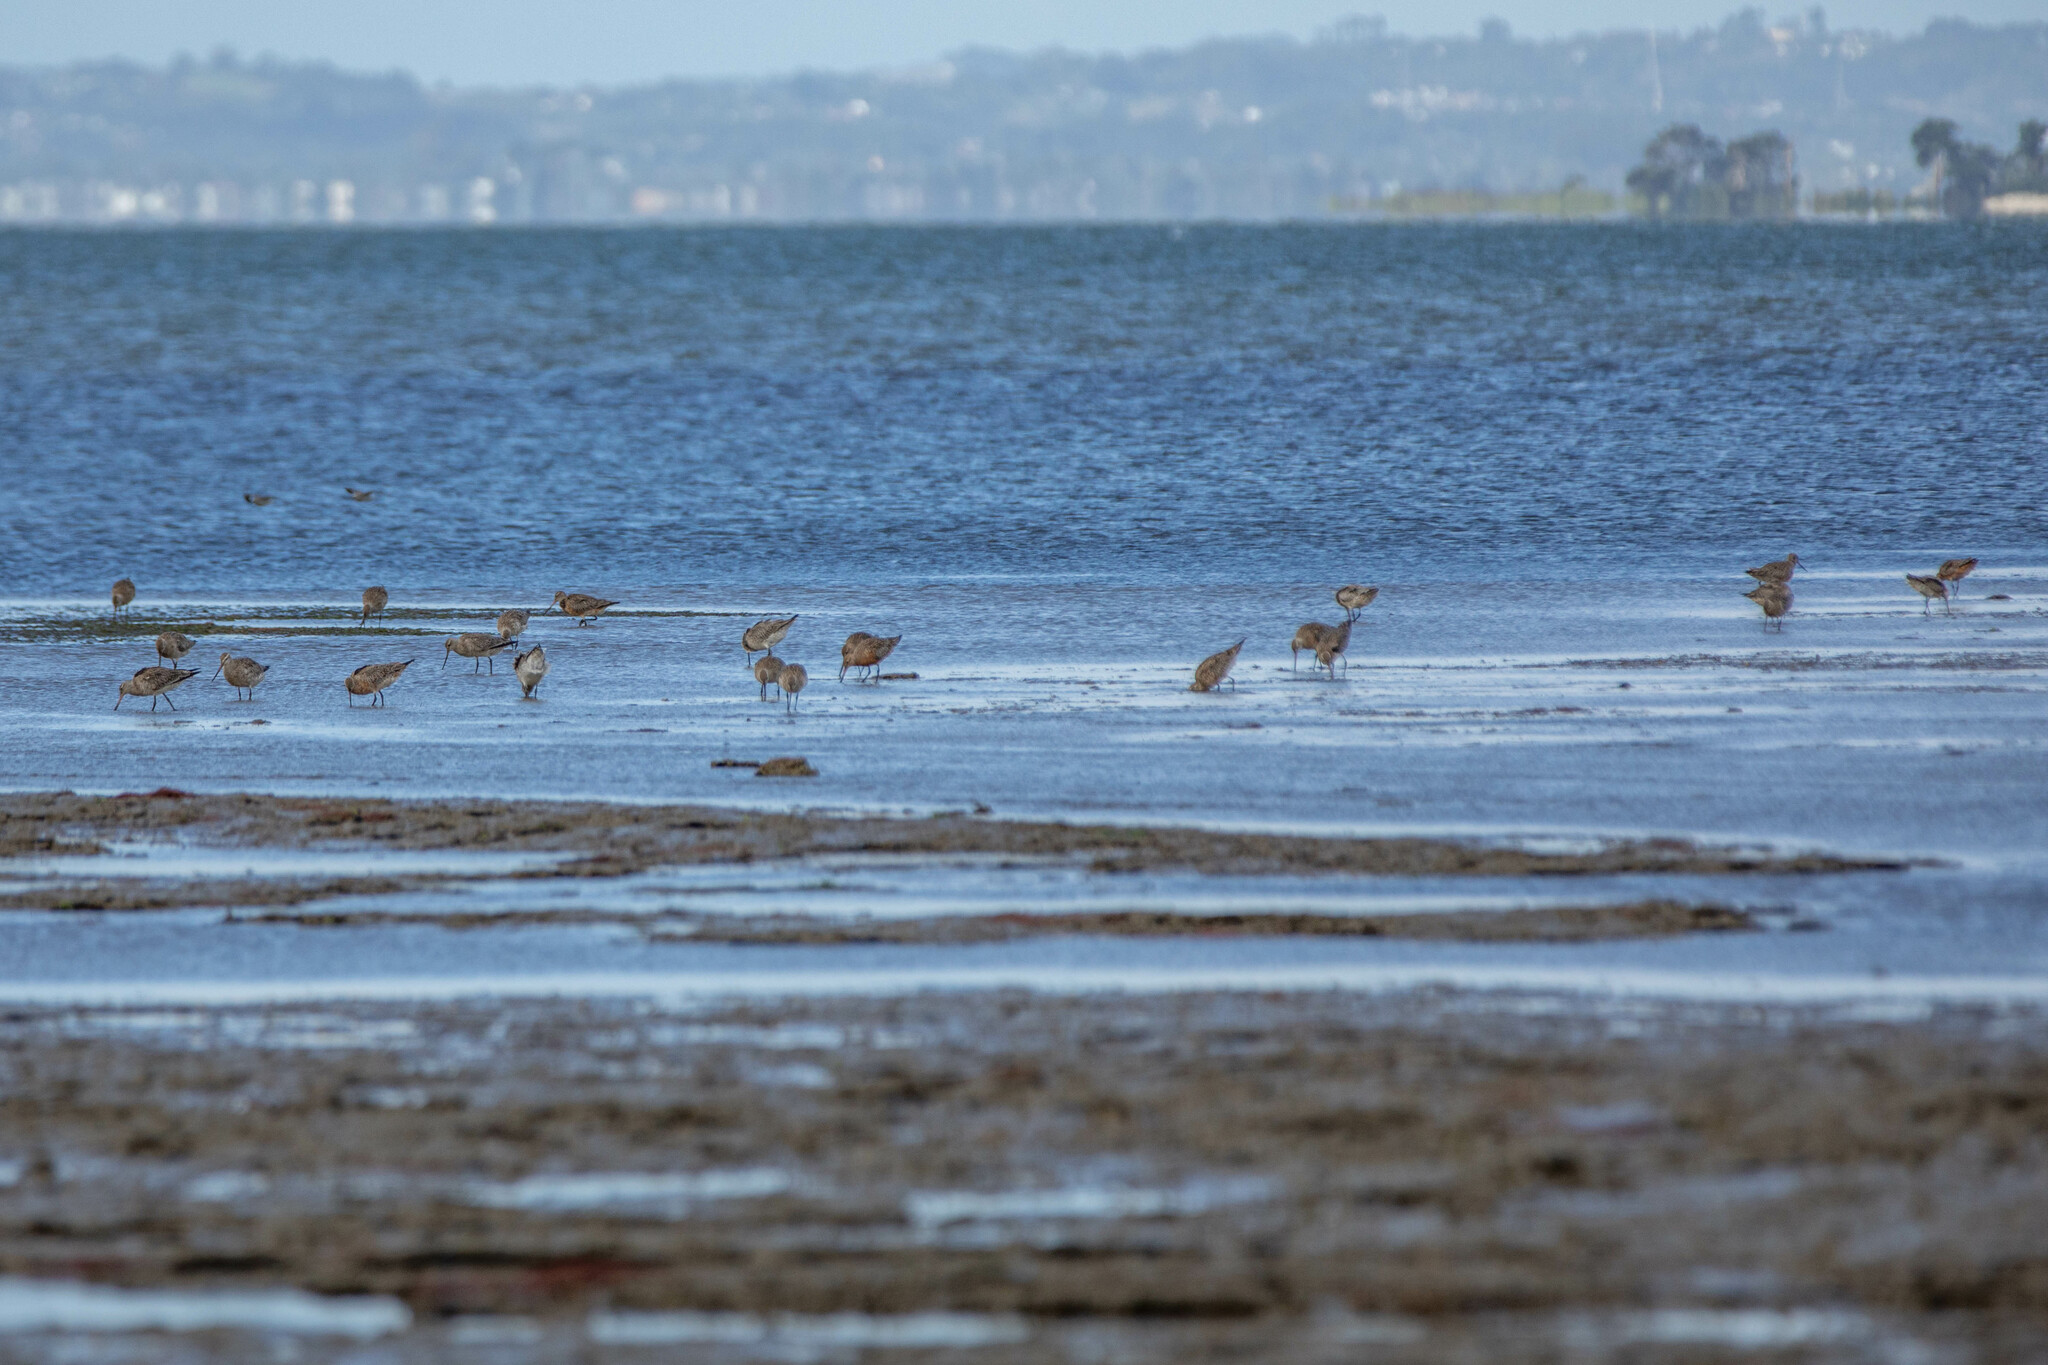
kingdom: Animalia
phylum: Chordata
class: Aves
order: Charadriiformes
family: Scolopacidae
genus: Limosa
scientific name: Limosa lapponica
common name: Bar-tailed godwit
